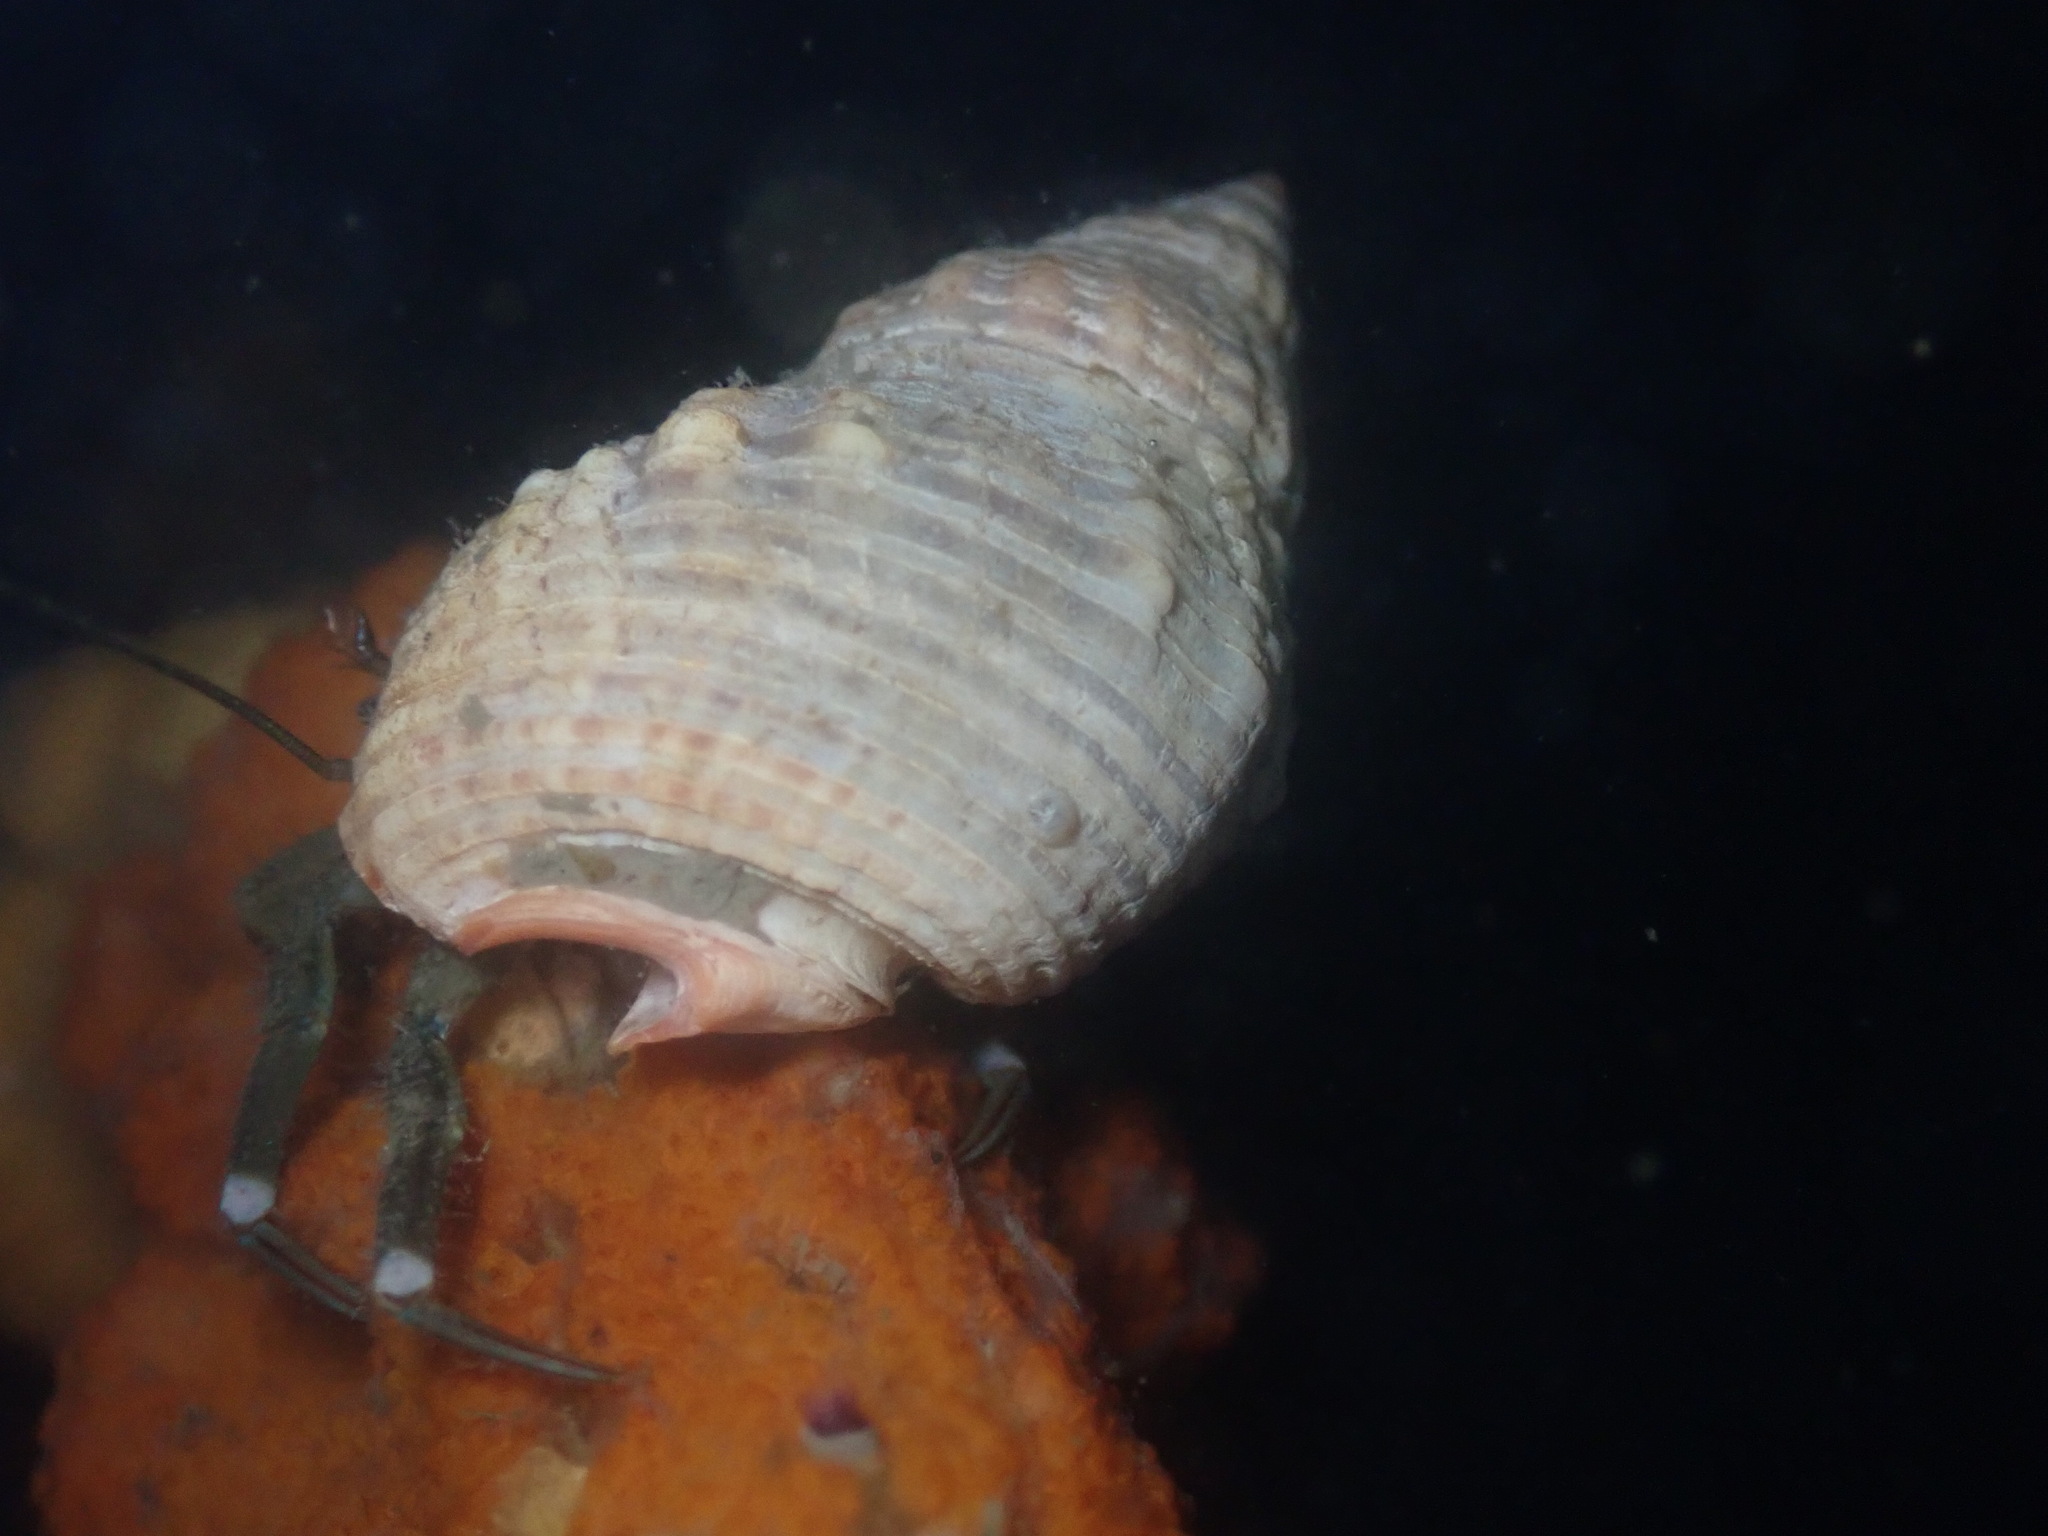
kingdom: Animalia
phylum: Mollusca
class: Gastropoda
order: Neogastropoda
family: Nassariidae
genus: Caesia
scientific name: Caesia fossata
